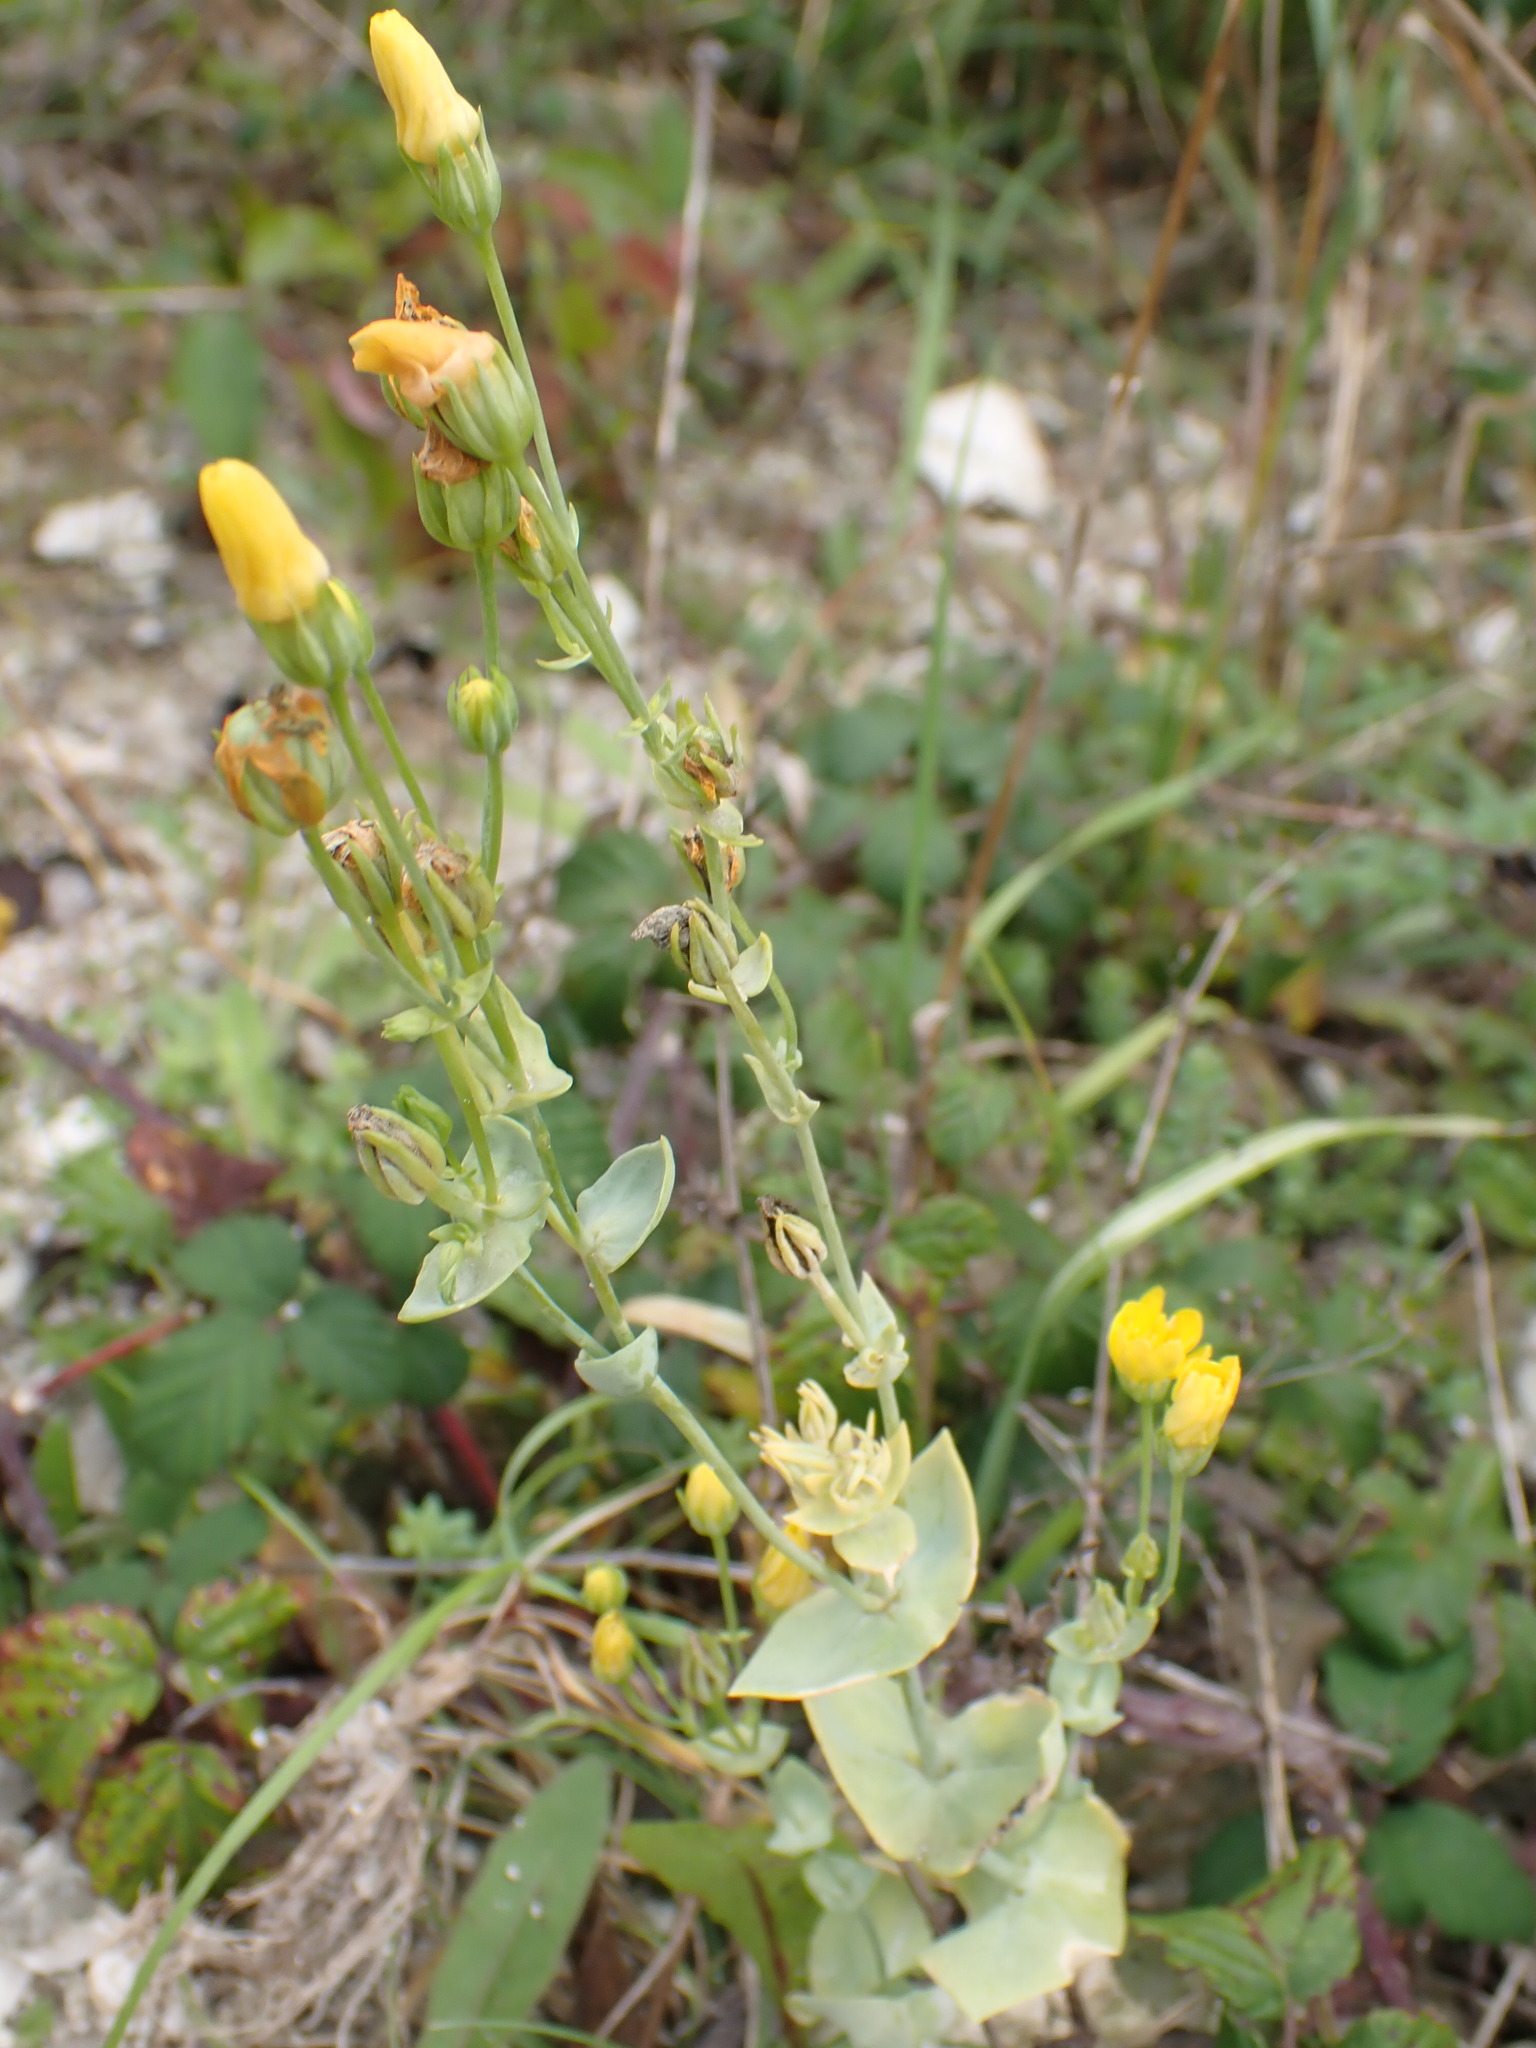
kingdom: Plantae
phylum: Tracheophyta
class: Magnoliopsida
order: Gentianales
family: Gentianaceae
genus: Blackstonia
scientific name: Blackstonia perfoliata
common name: Yellow-wort
